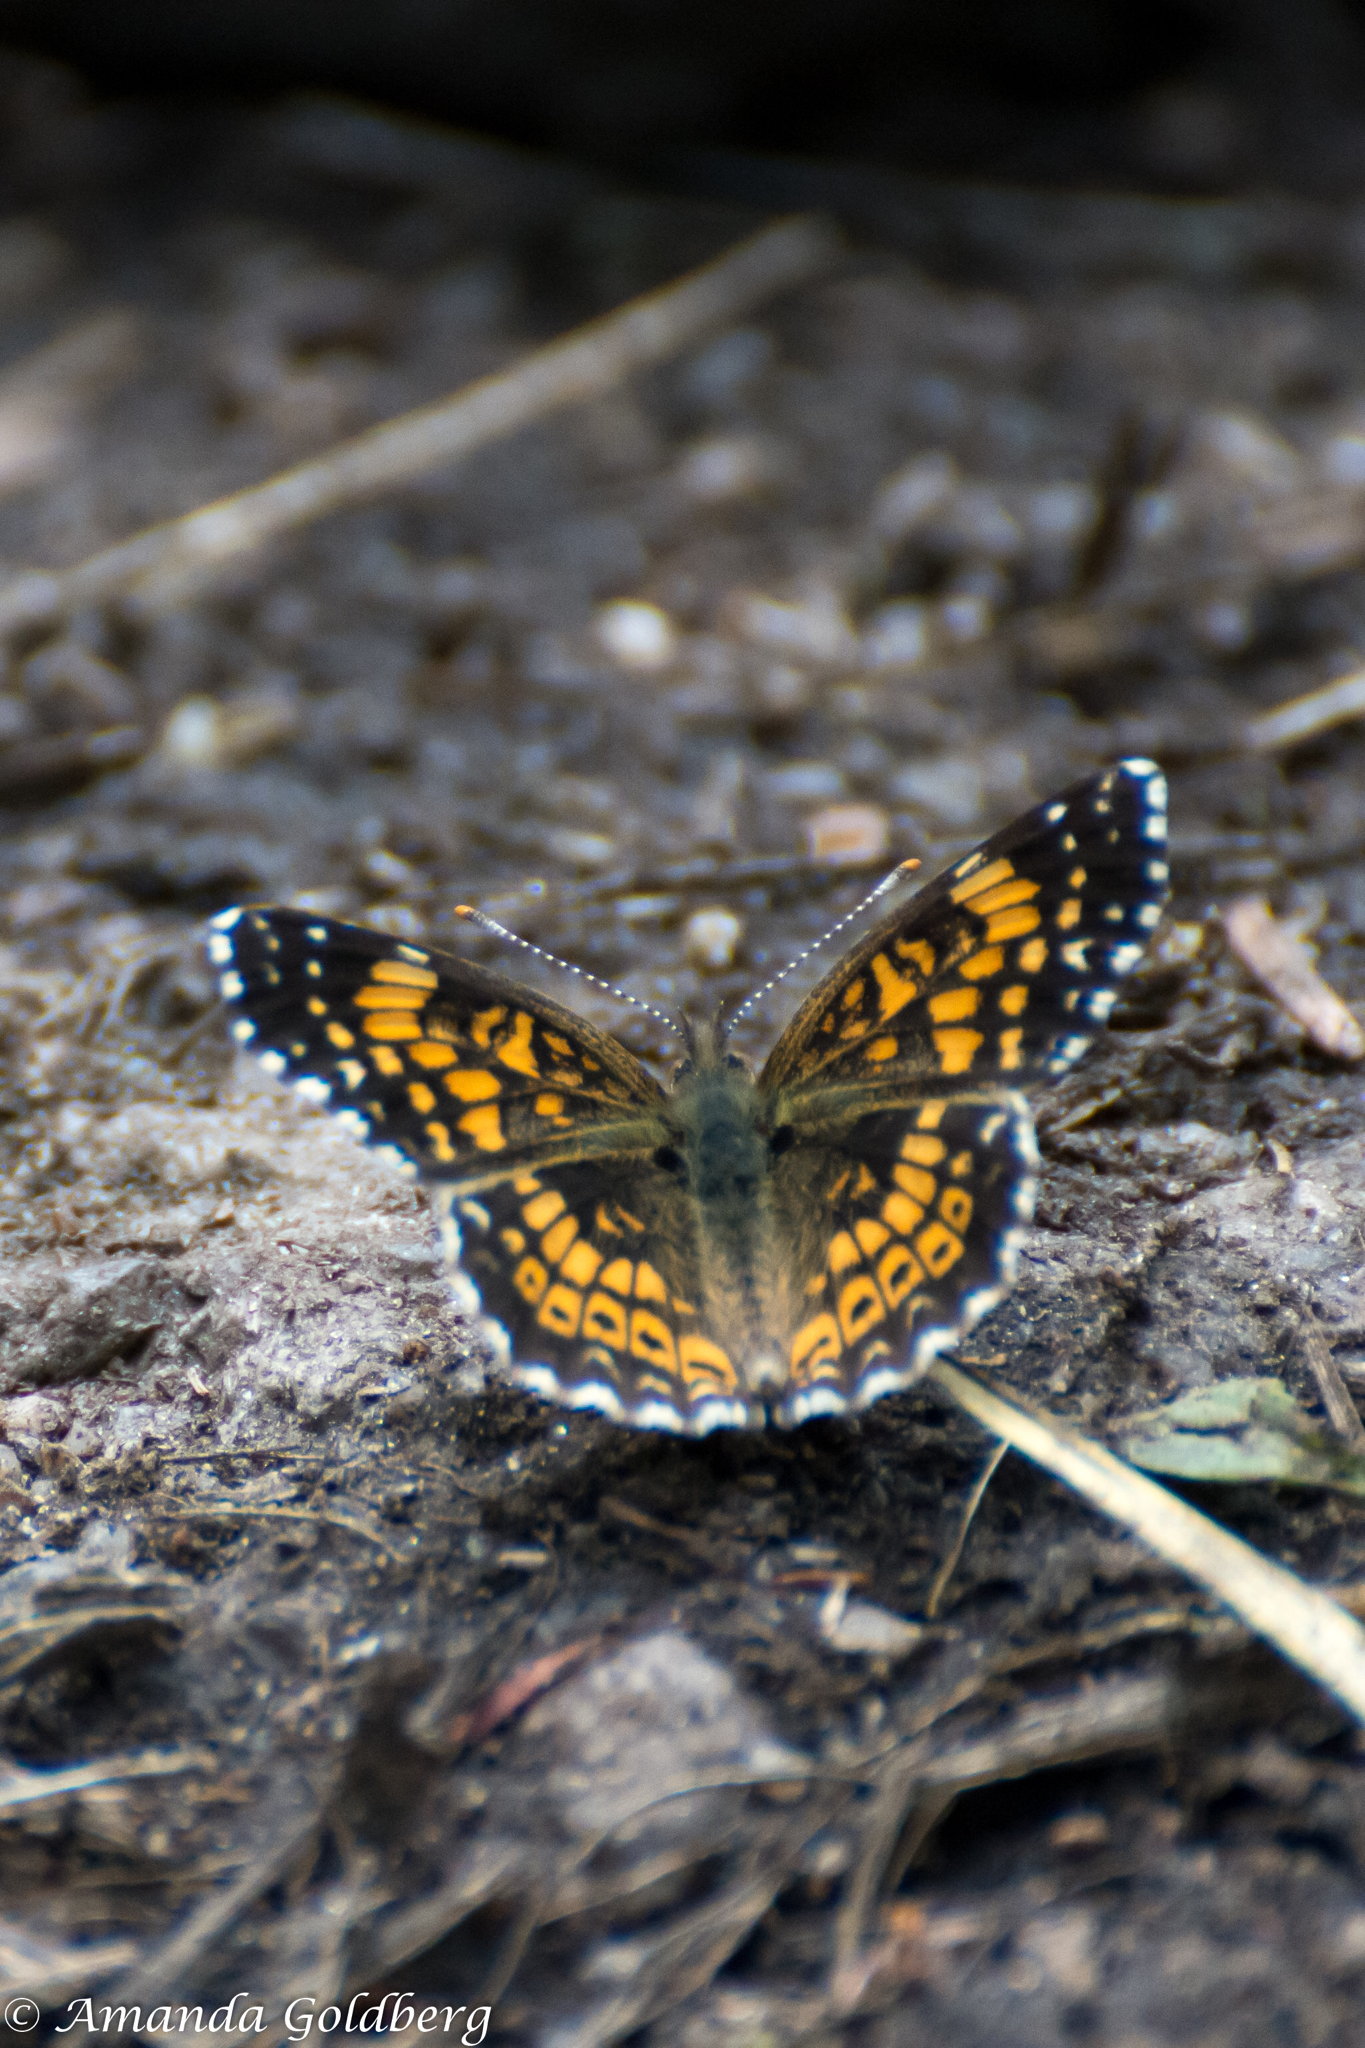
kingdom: Animalia
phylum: Arthropoda
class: Insecta
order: Lepidoptera
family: Nymphalidae
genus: Chlosyne
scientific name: Chlosyne gorgone
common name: Gorgone checkerspot
